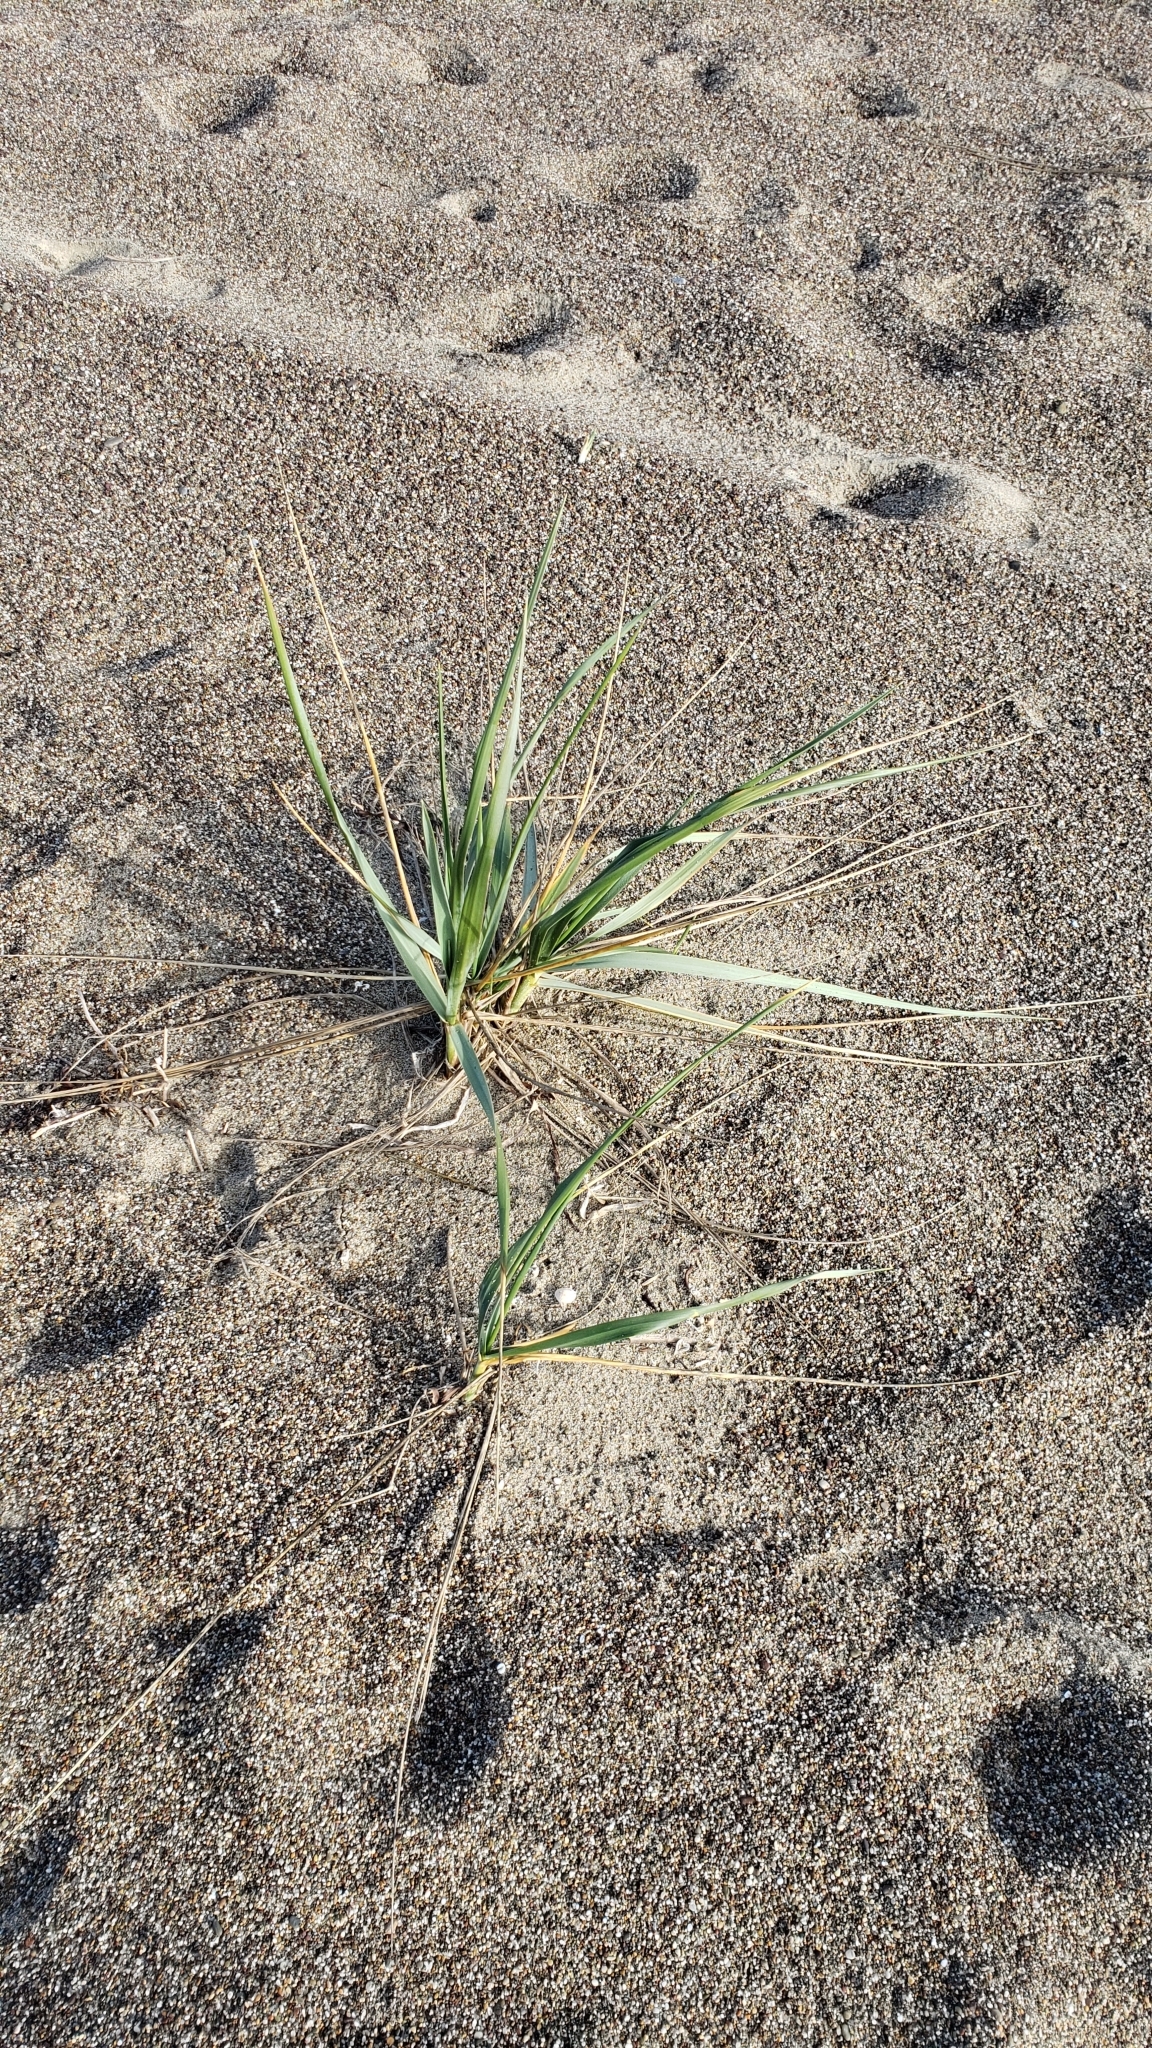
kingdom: Plantae
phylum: Tracheophyta
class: Liliopsida
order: Poales
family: Poaceae
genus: Leymus
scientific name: Leymus mollis
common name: American dune grass
